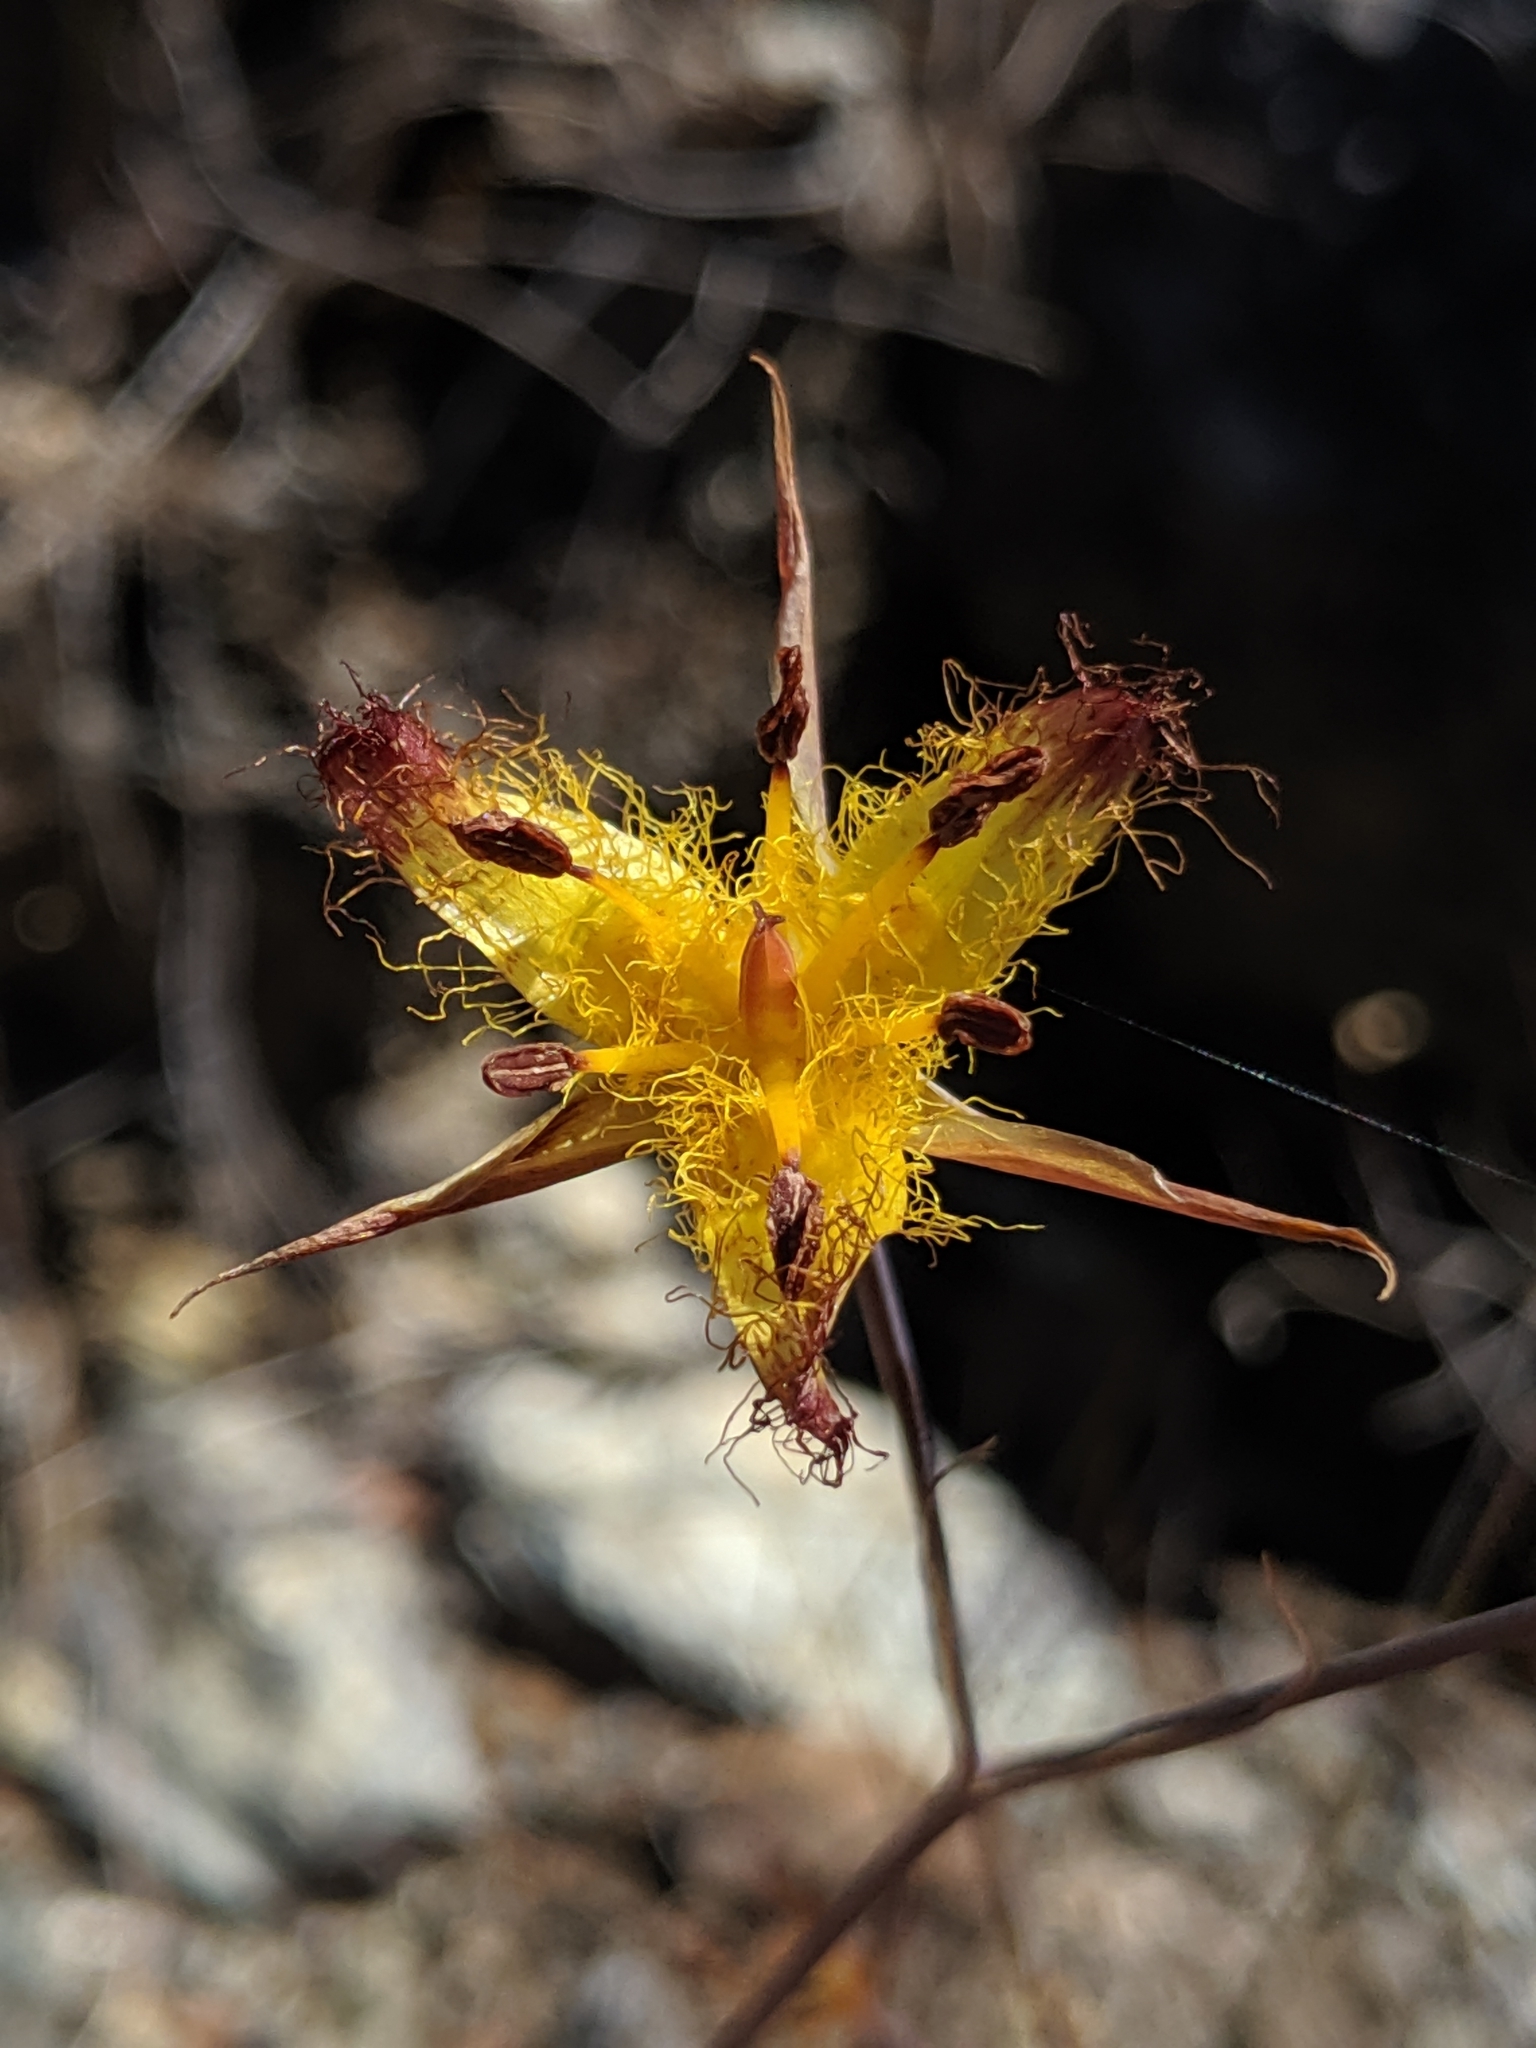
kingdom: Plantae
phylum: Tracheophyta
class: Liliopsida
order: Liliales
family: Liliaceae
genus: Calochortus
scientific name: Calochortus obispoensis
